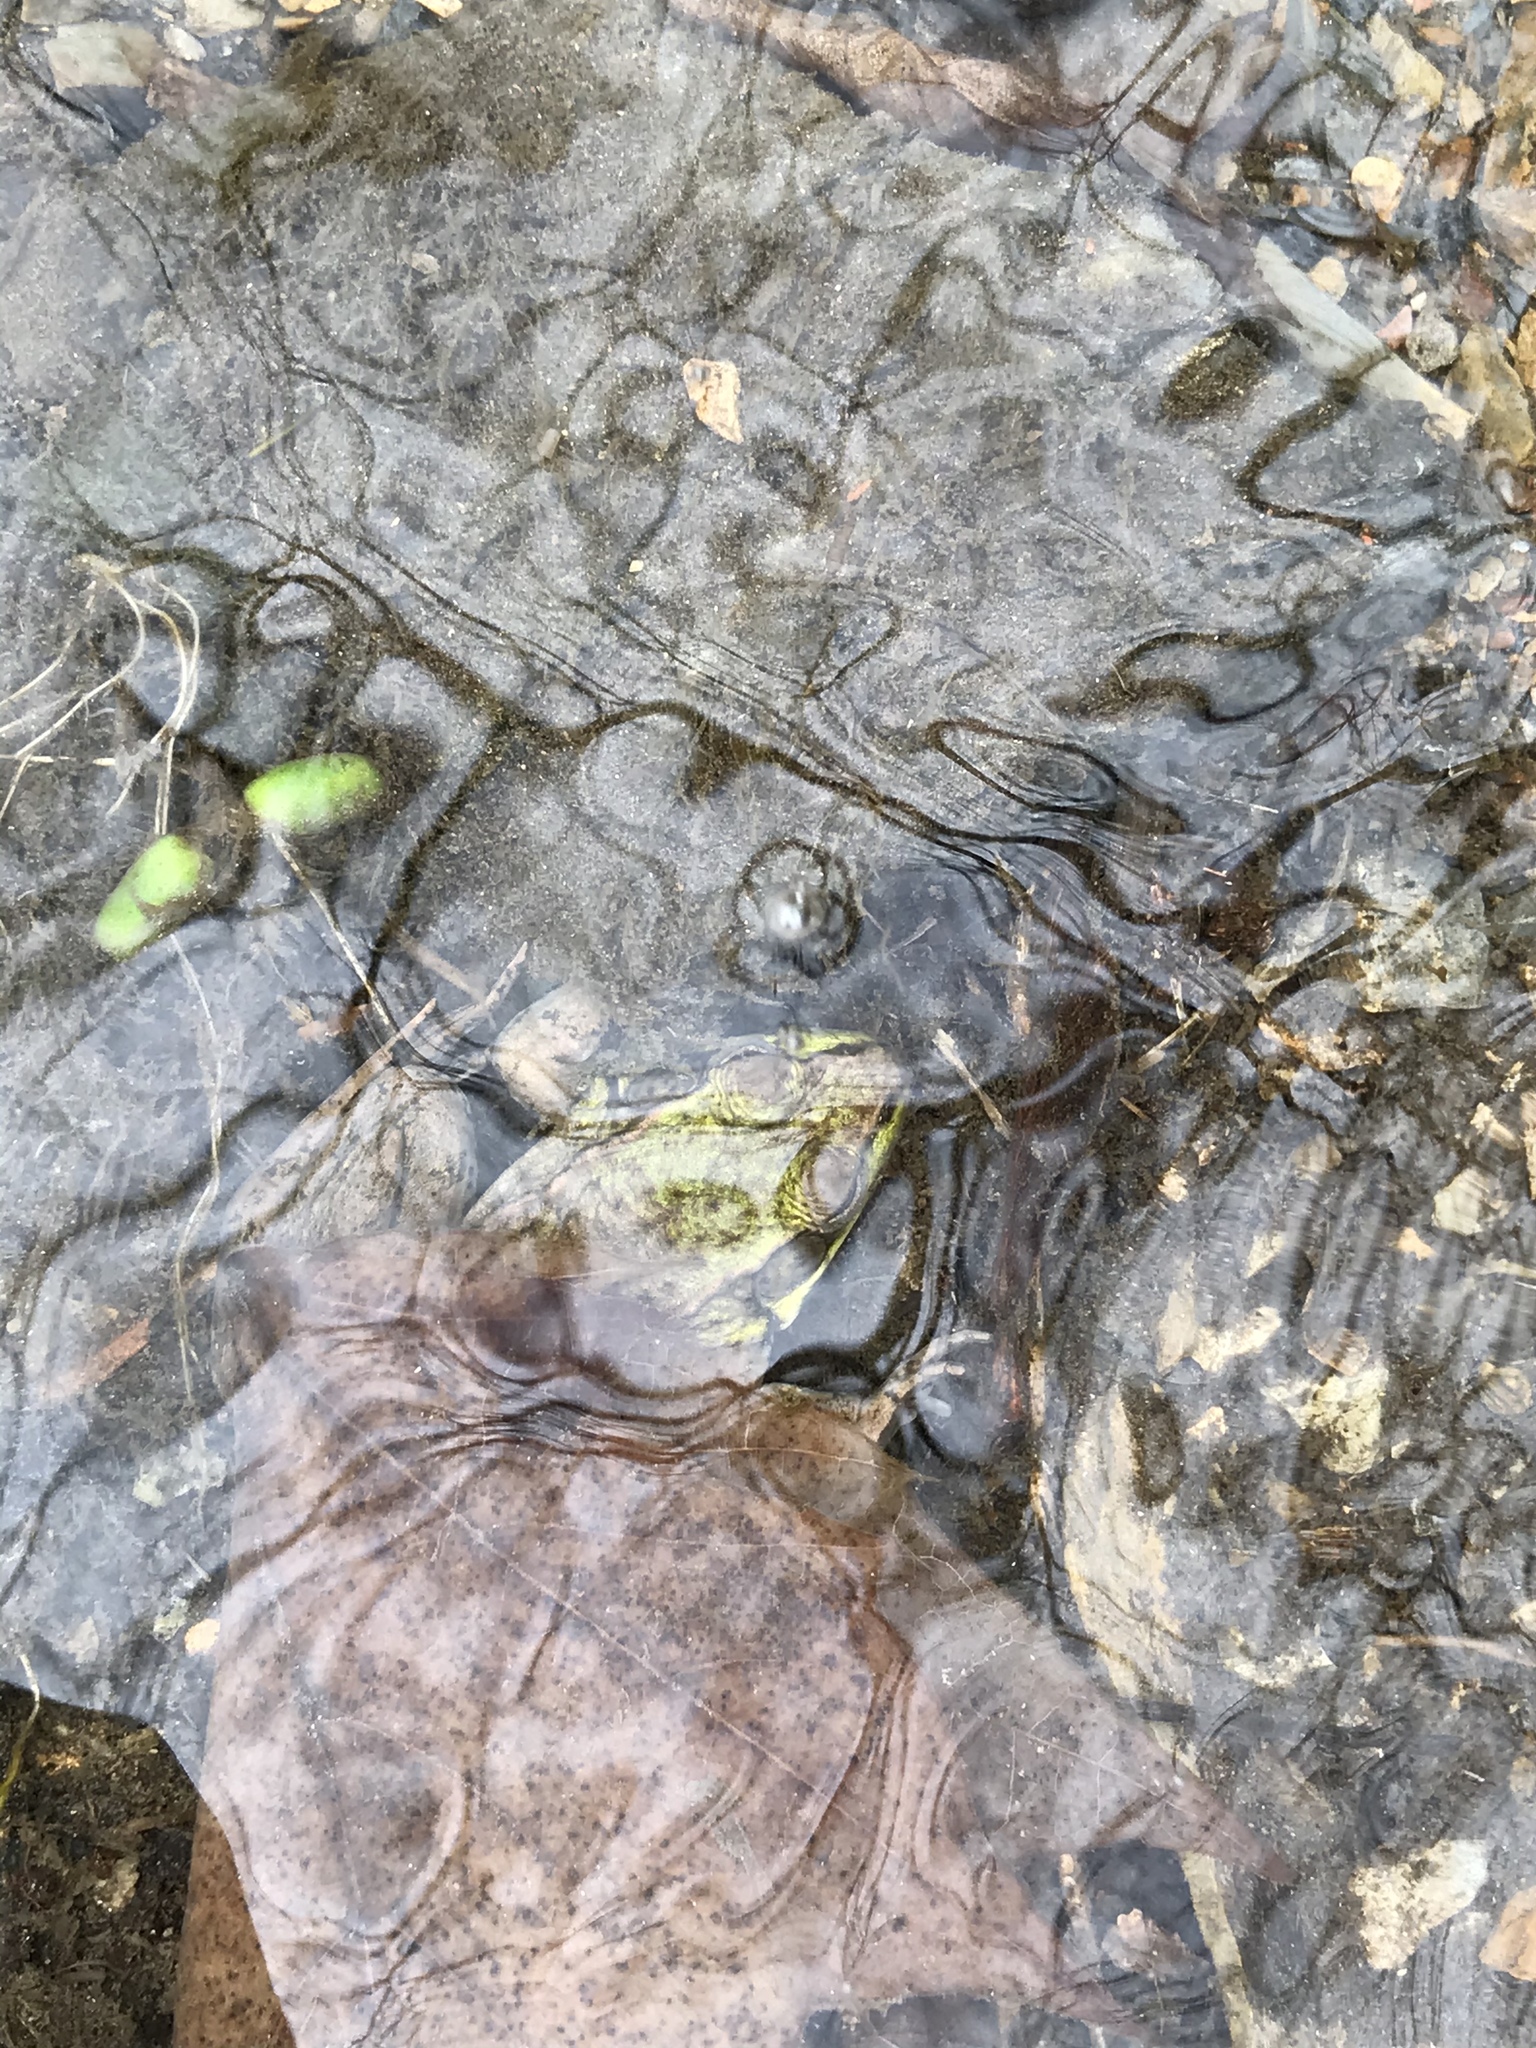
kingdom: Animalia
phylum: Chordata
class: Amphibia
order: Anura
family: Ranidae
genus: Lithobates
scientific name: Lithobates clamitans
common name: Green frog
